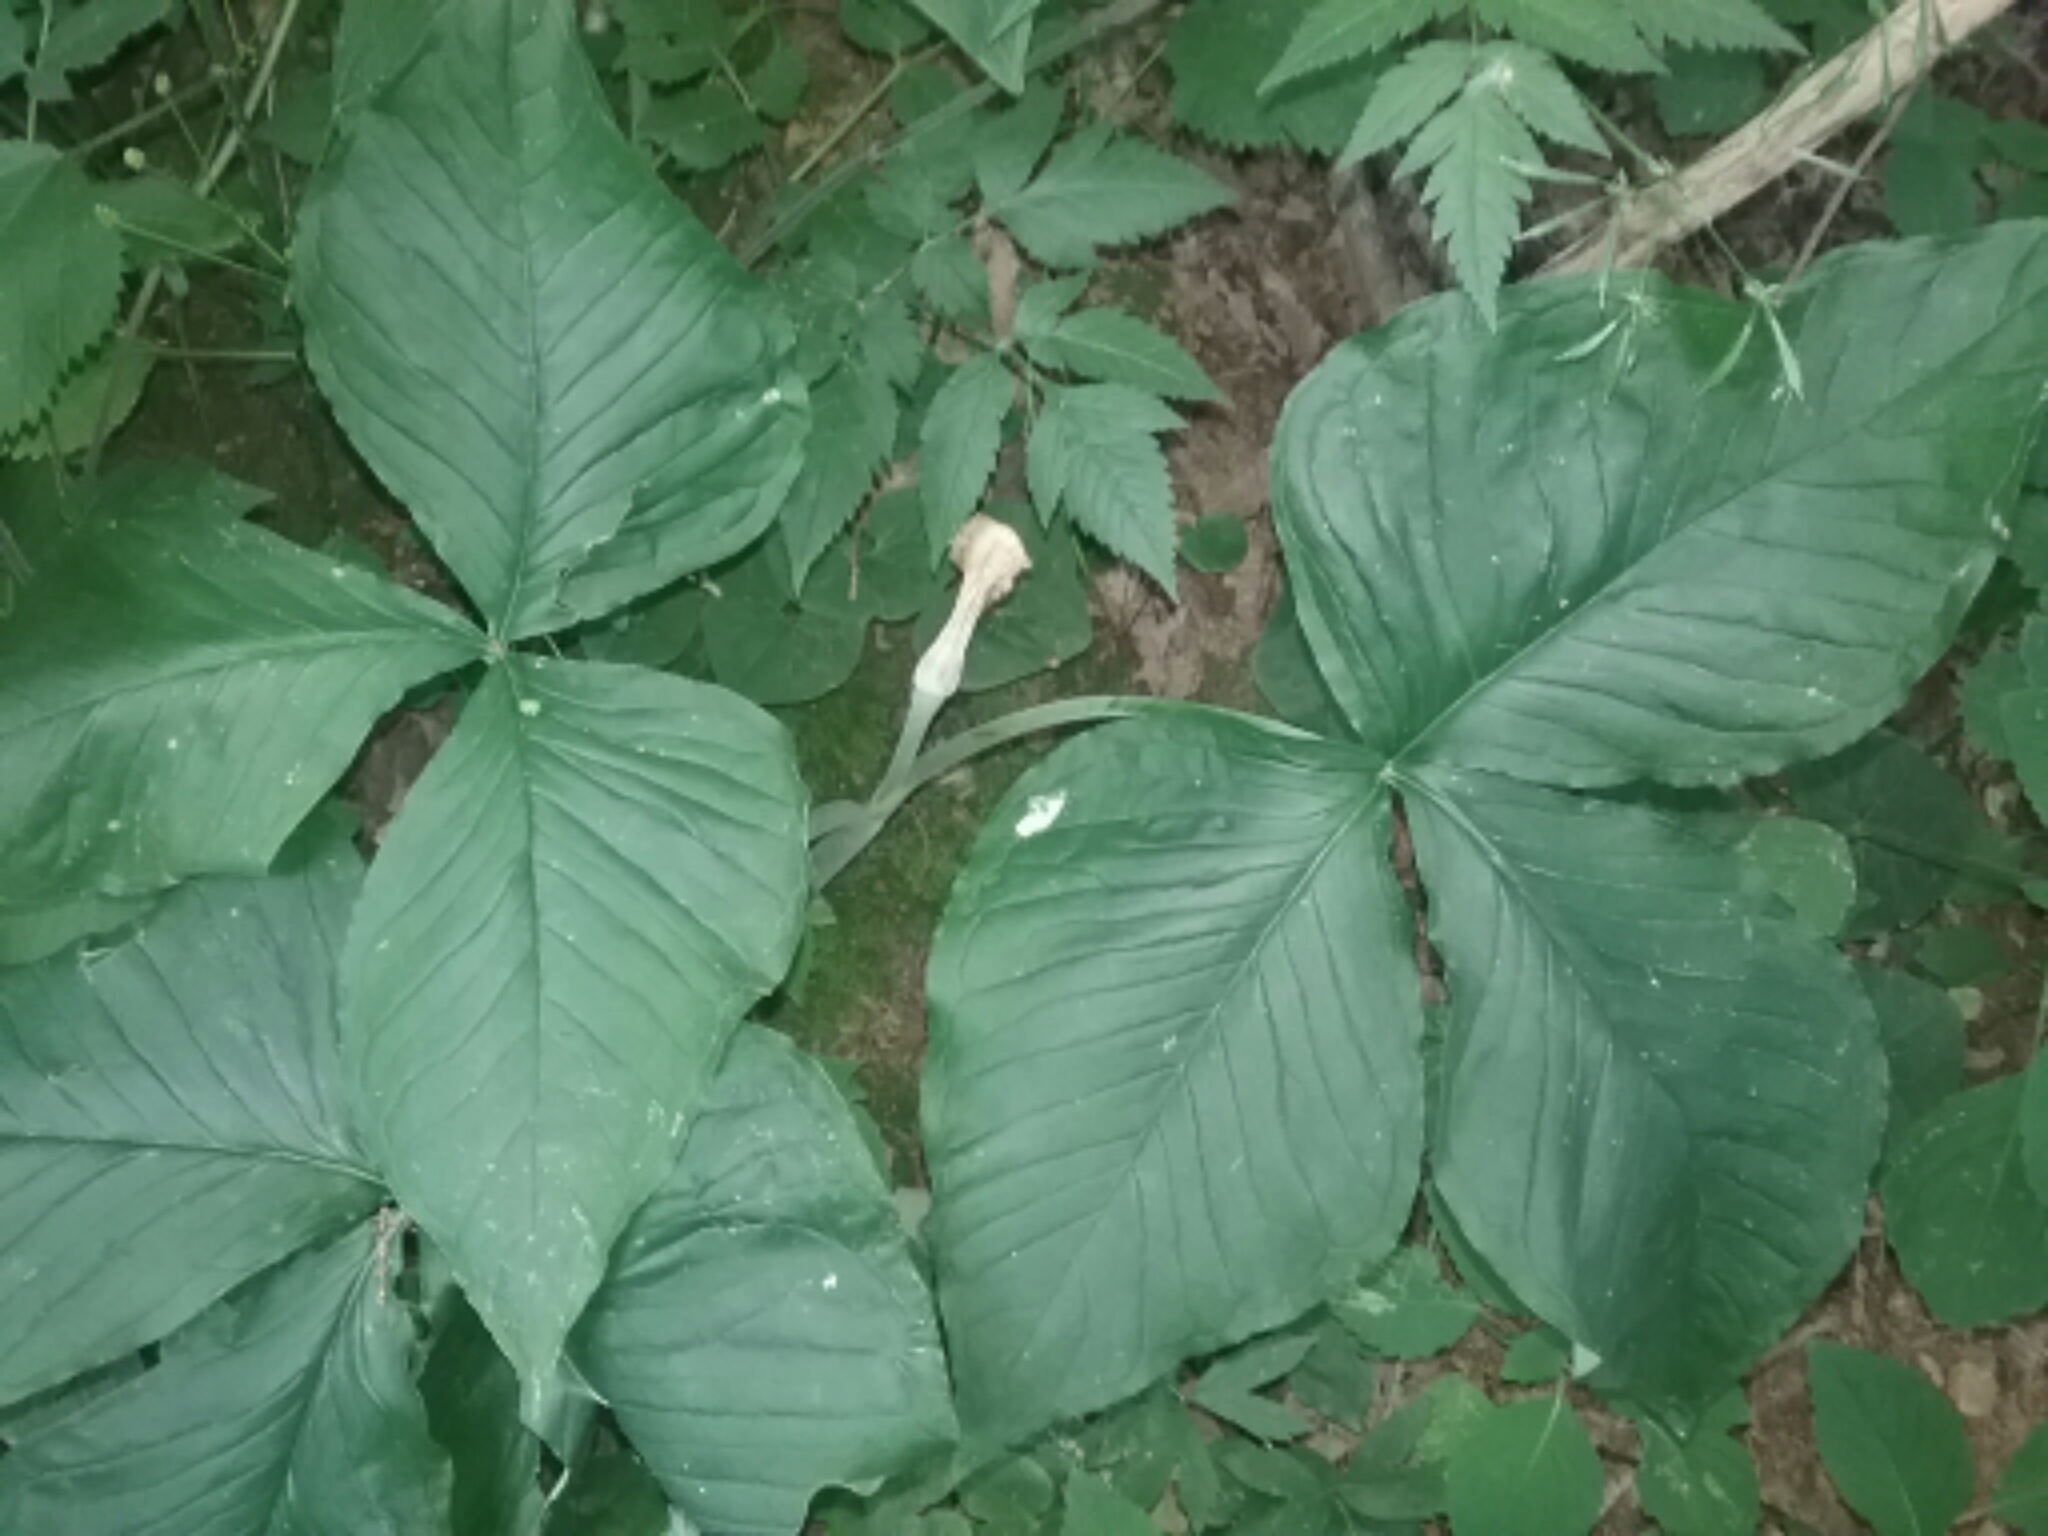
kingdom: Plantae
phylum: Tracheophyta
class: Liliopsida
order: Alismatales
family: Araceae
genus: Arisaema
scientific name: Arisaema triphyllum
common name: Jack-in-the-pulpit
